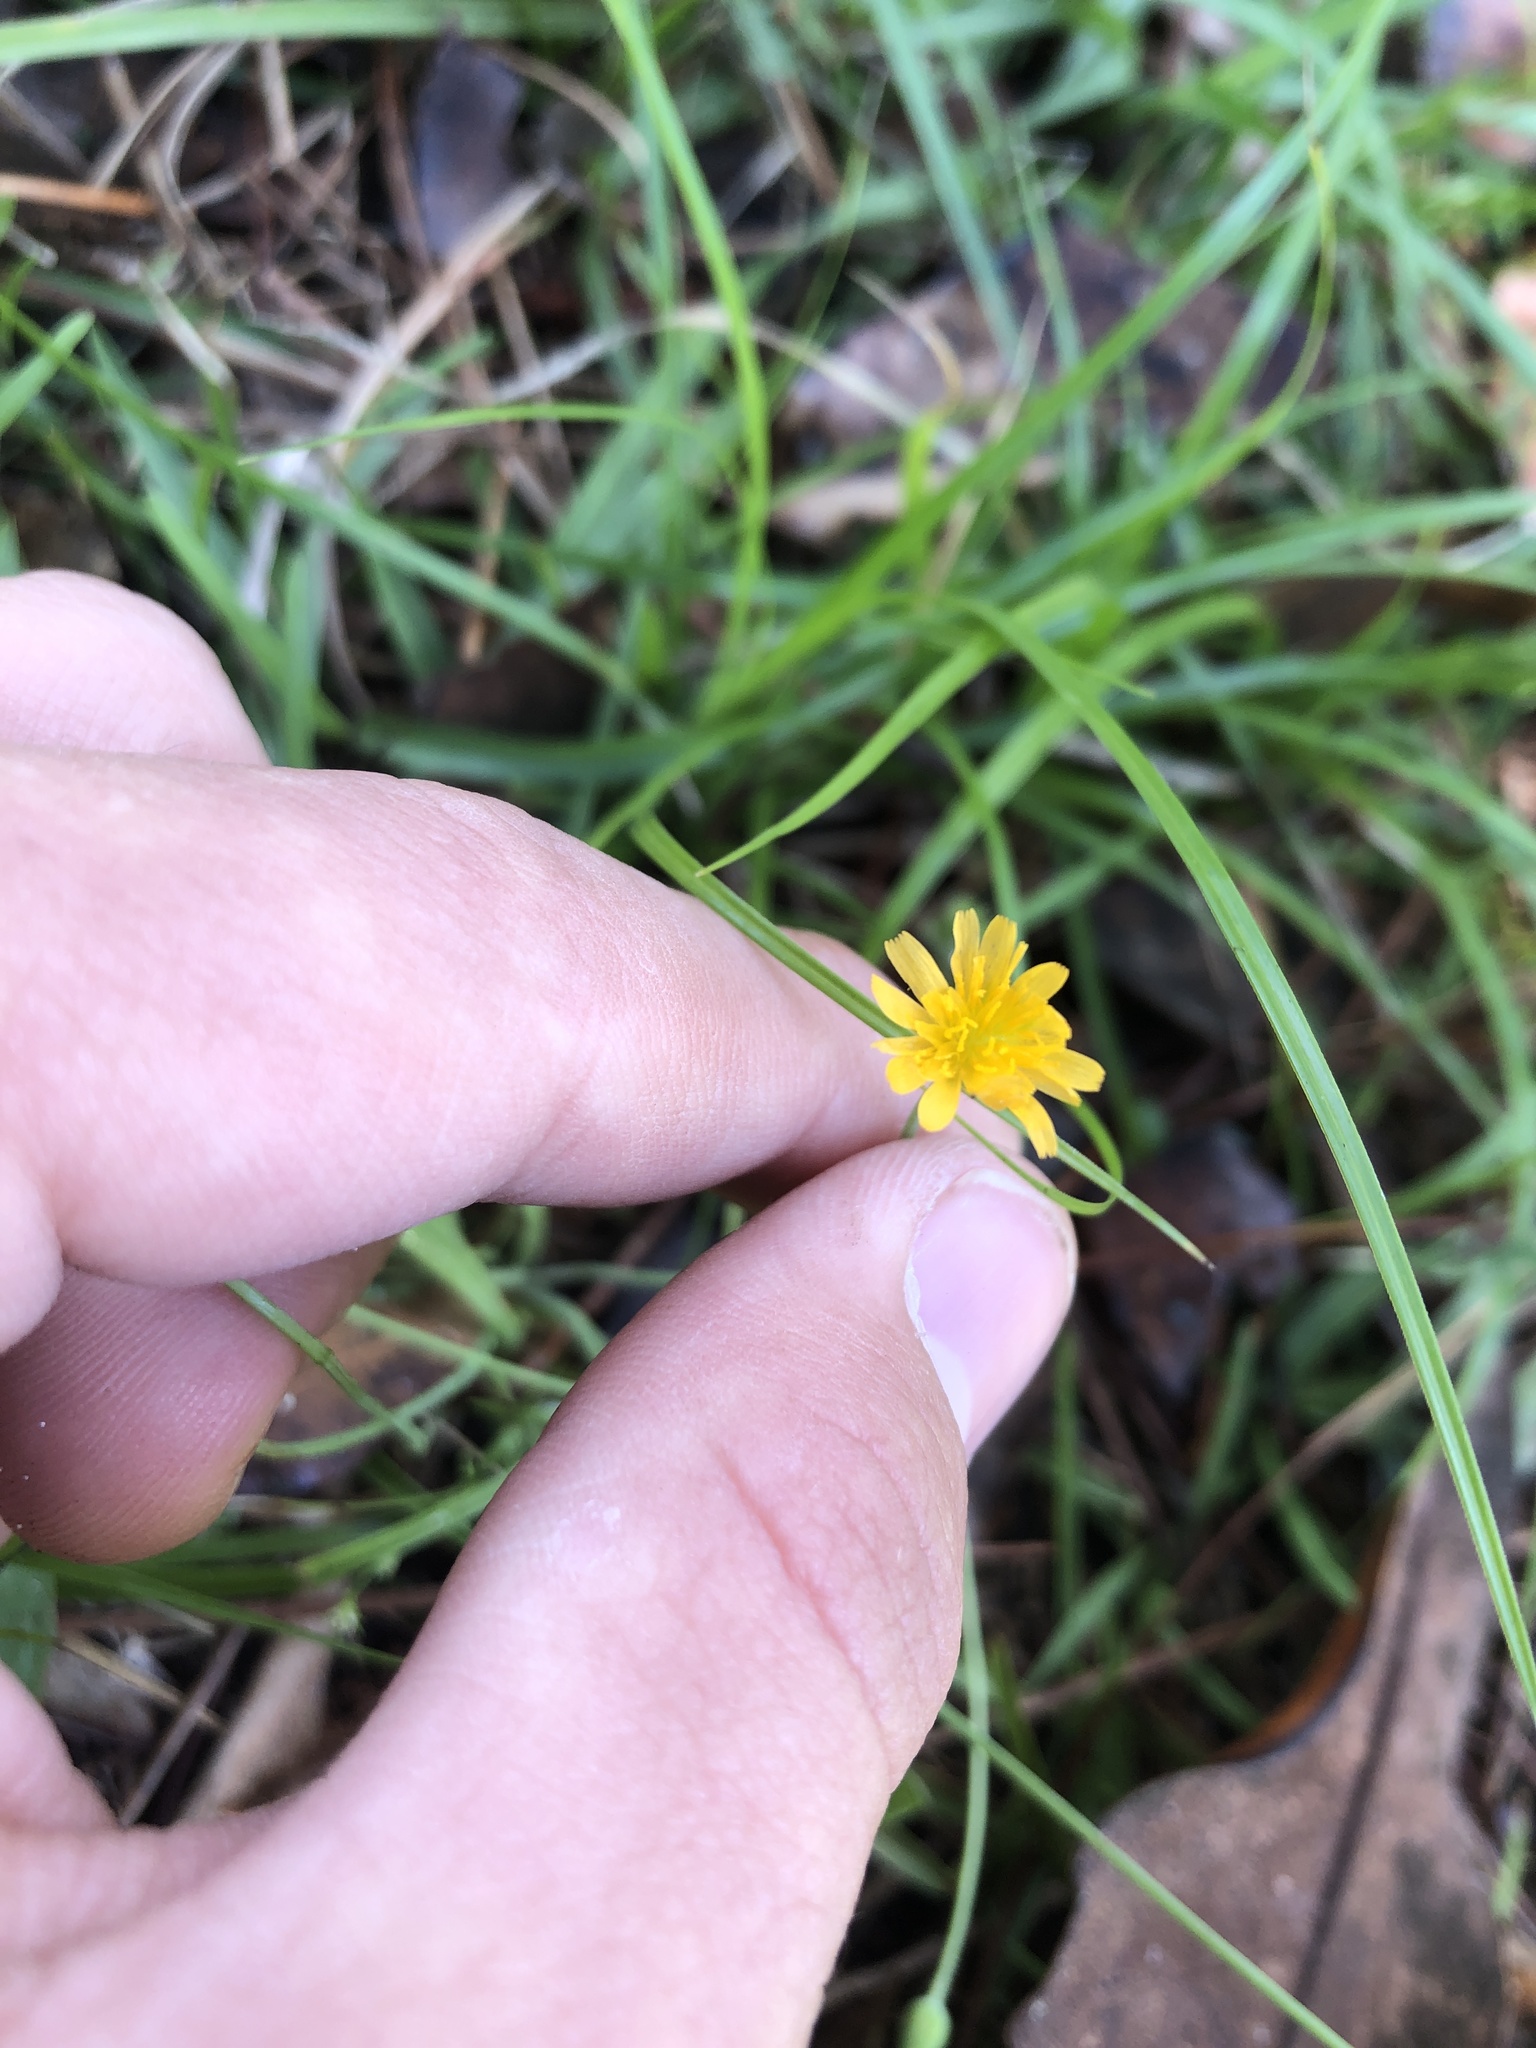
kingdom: Plantae
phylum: Tracheophyta
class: Magnoliopsida
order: Asterales
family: Asteraceae
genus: Krigia
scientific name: Krigia virginica
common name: Virginia dwarf-dandelion
